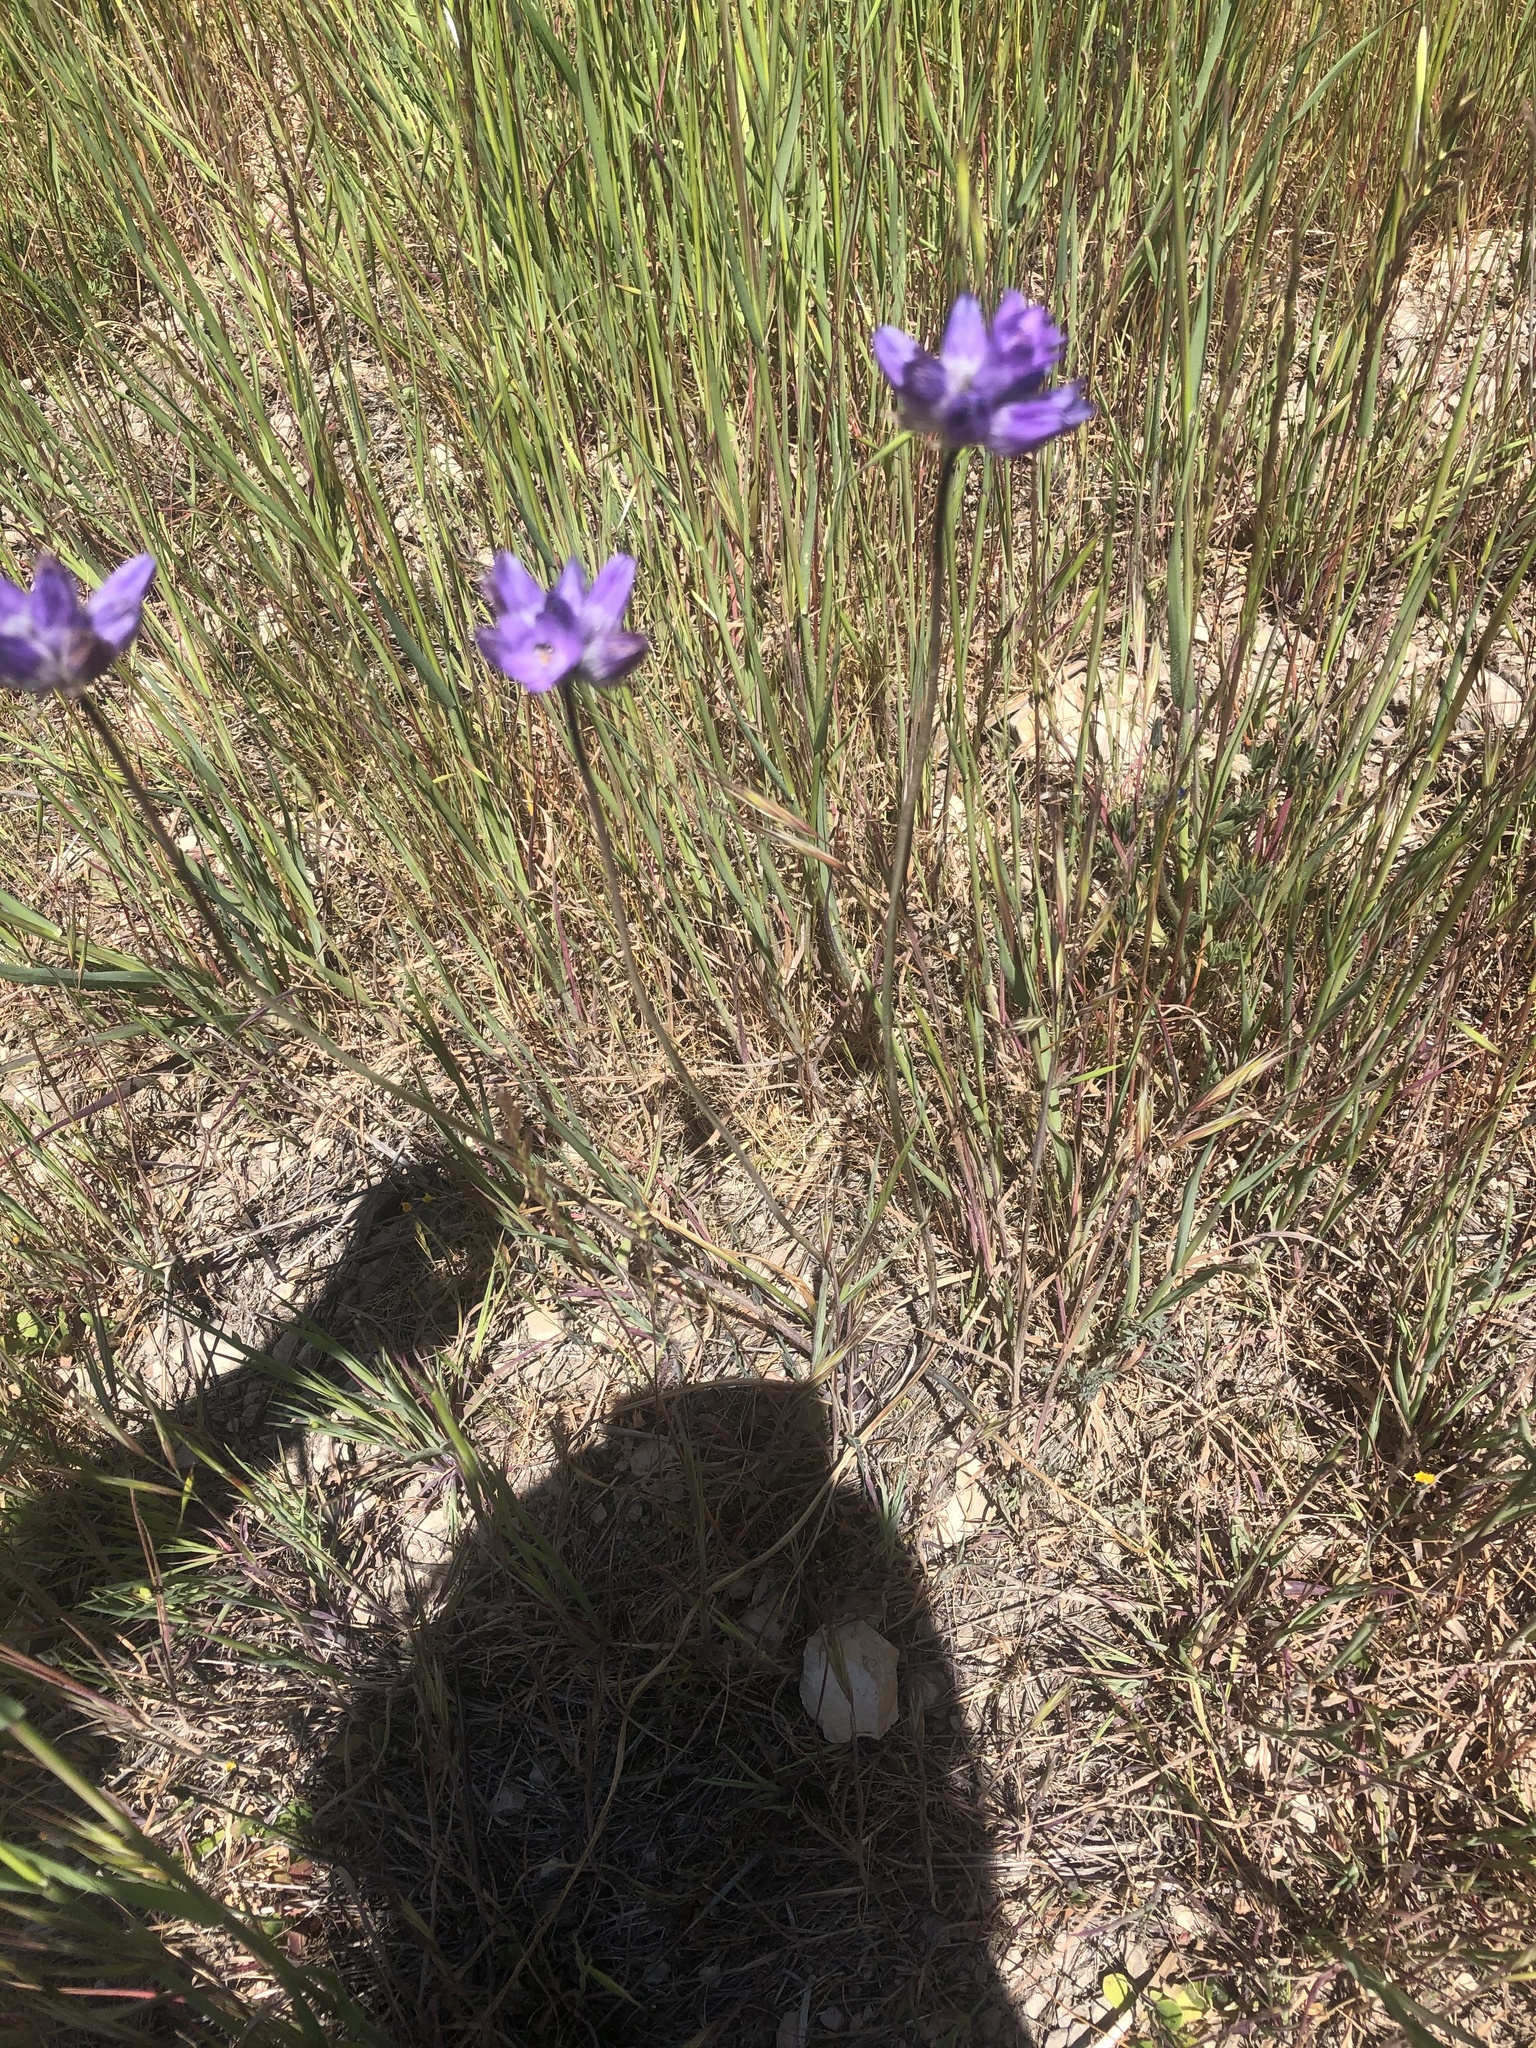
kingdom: Plantae
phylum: Tracheophyta
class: Liliopsida
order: Asparagales
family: Asparagaceae
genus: Dipterostemon
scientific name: Dipterostemon capitatus
